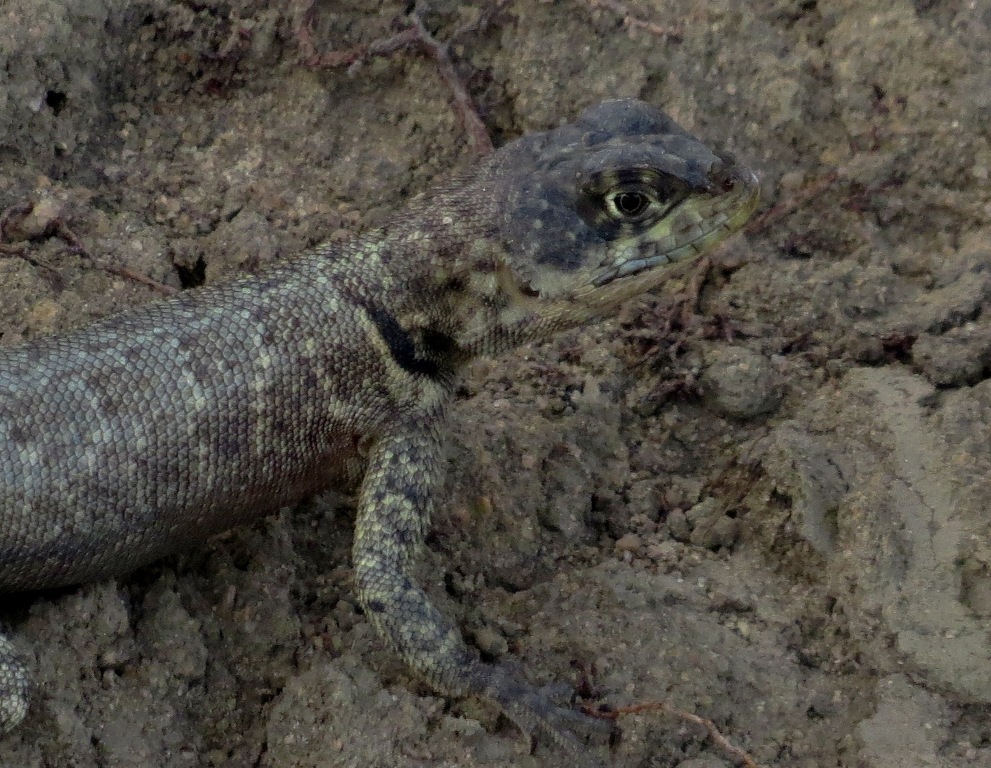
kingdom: Animalia
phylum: Chordata
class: Squamata
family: Tropiduridae
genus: Tropidurus
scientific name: Tropidurus hispidus
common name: Peters' lava lizard
